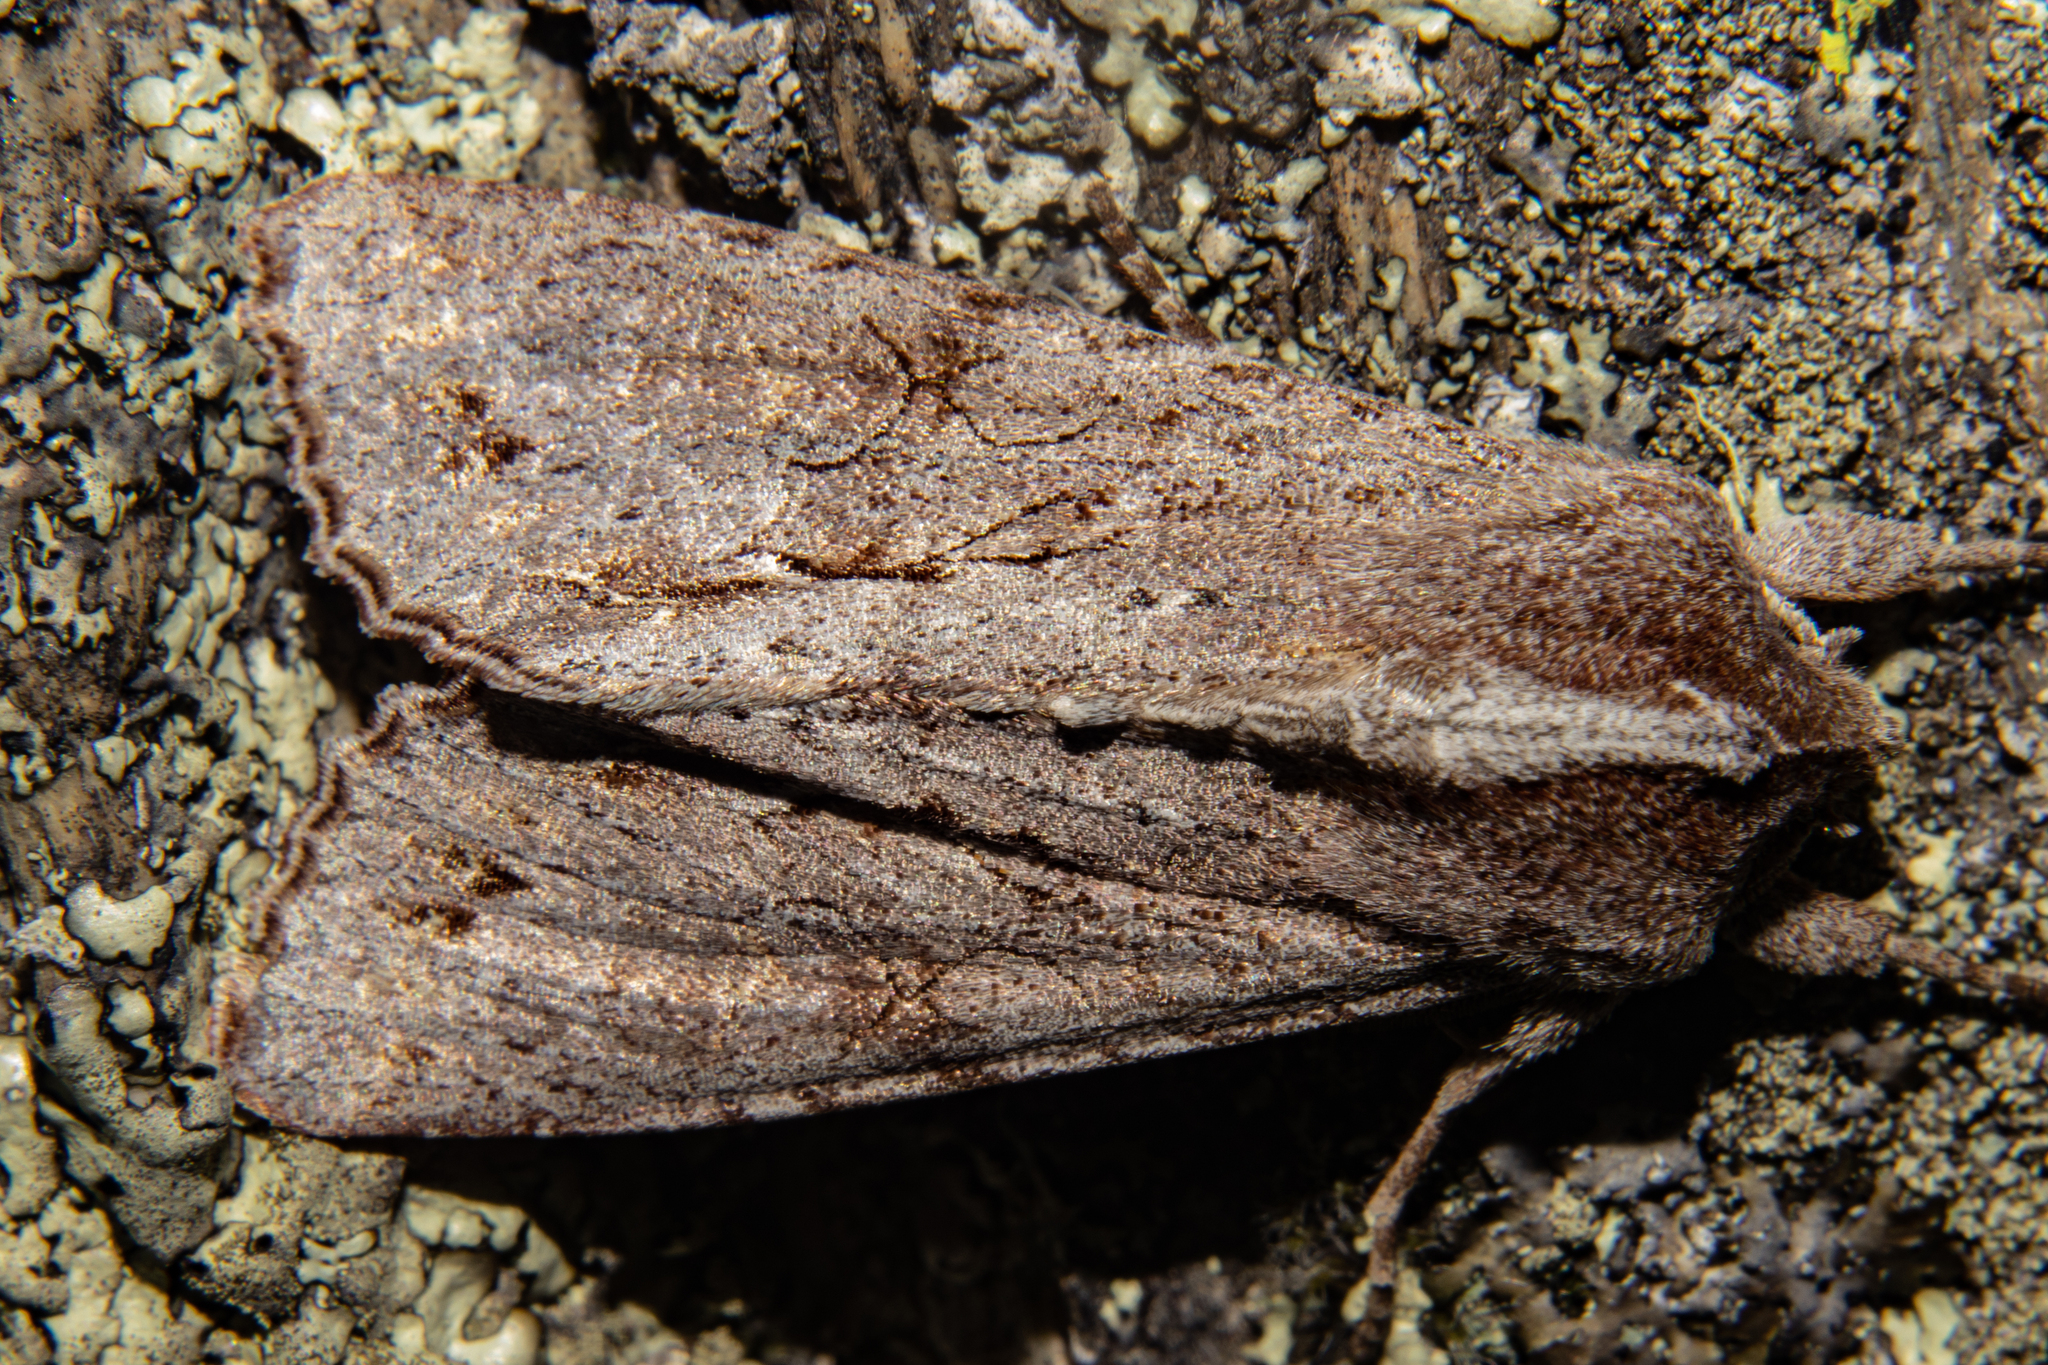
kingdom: Animalia
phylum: Arthropoda
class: Insecta
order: Lepidoptera
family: Noctuidae
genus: Ichneutica
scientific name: Ichneutica
